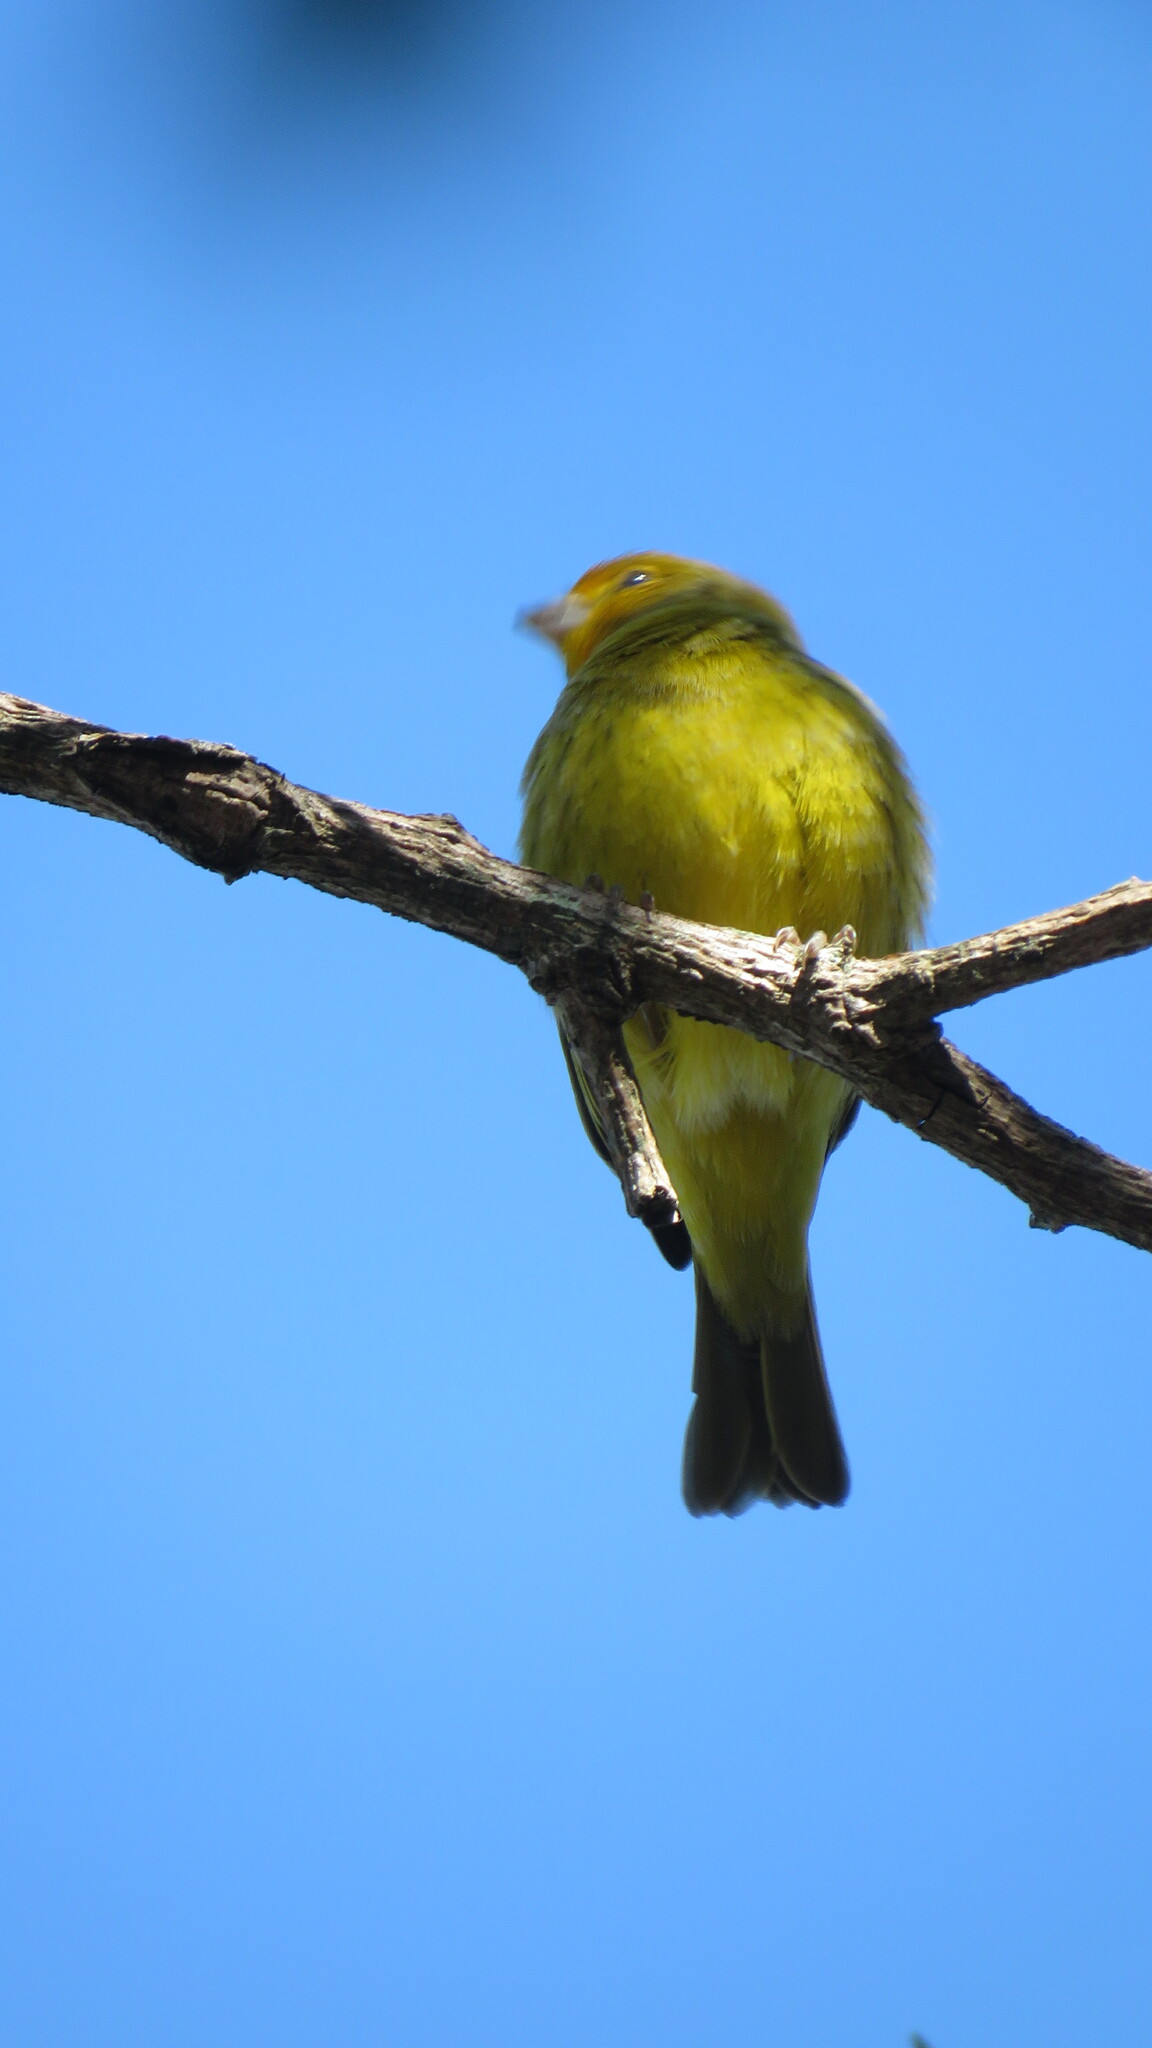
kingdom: Animalia
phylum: Chordata
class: Aves
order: Passeriformes
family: Thraupidae
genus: Sicalis
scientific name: Sicalis flaveola
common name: Saffron finch
